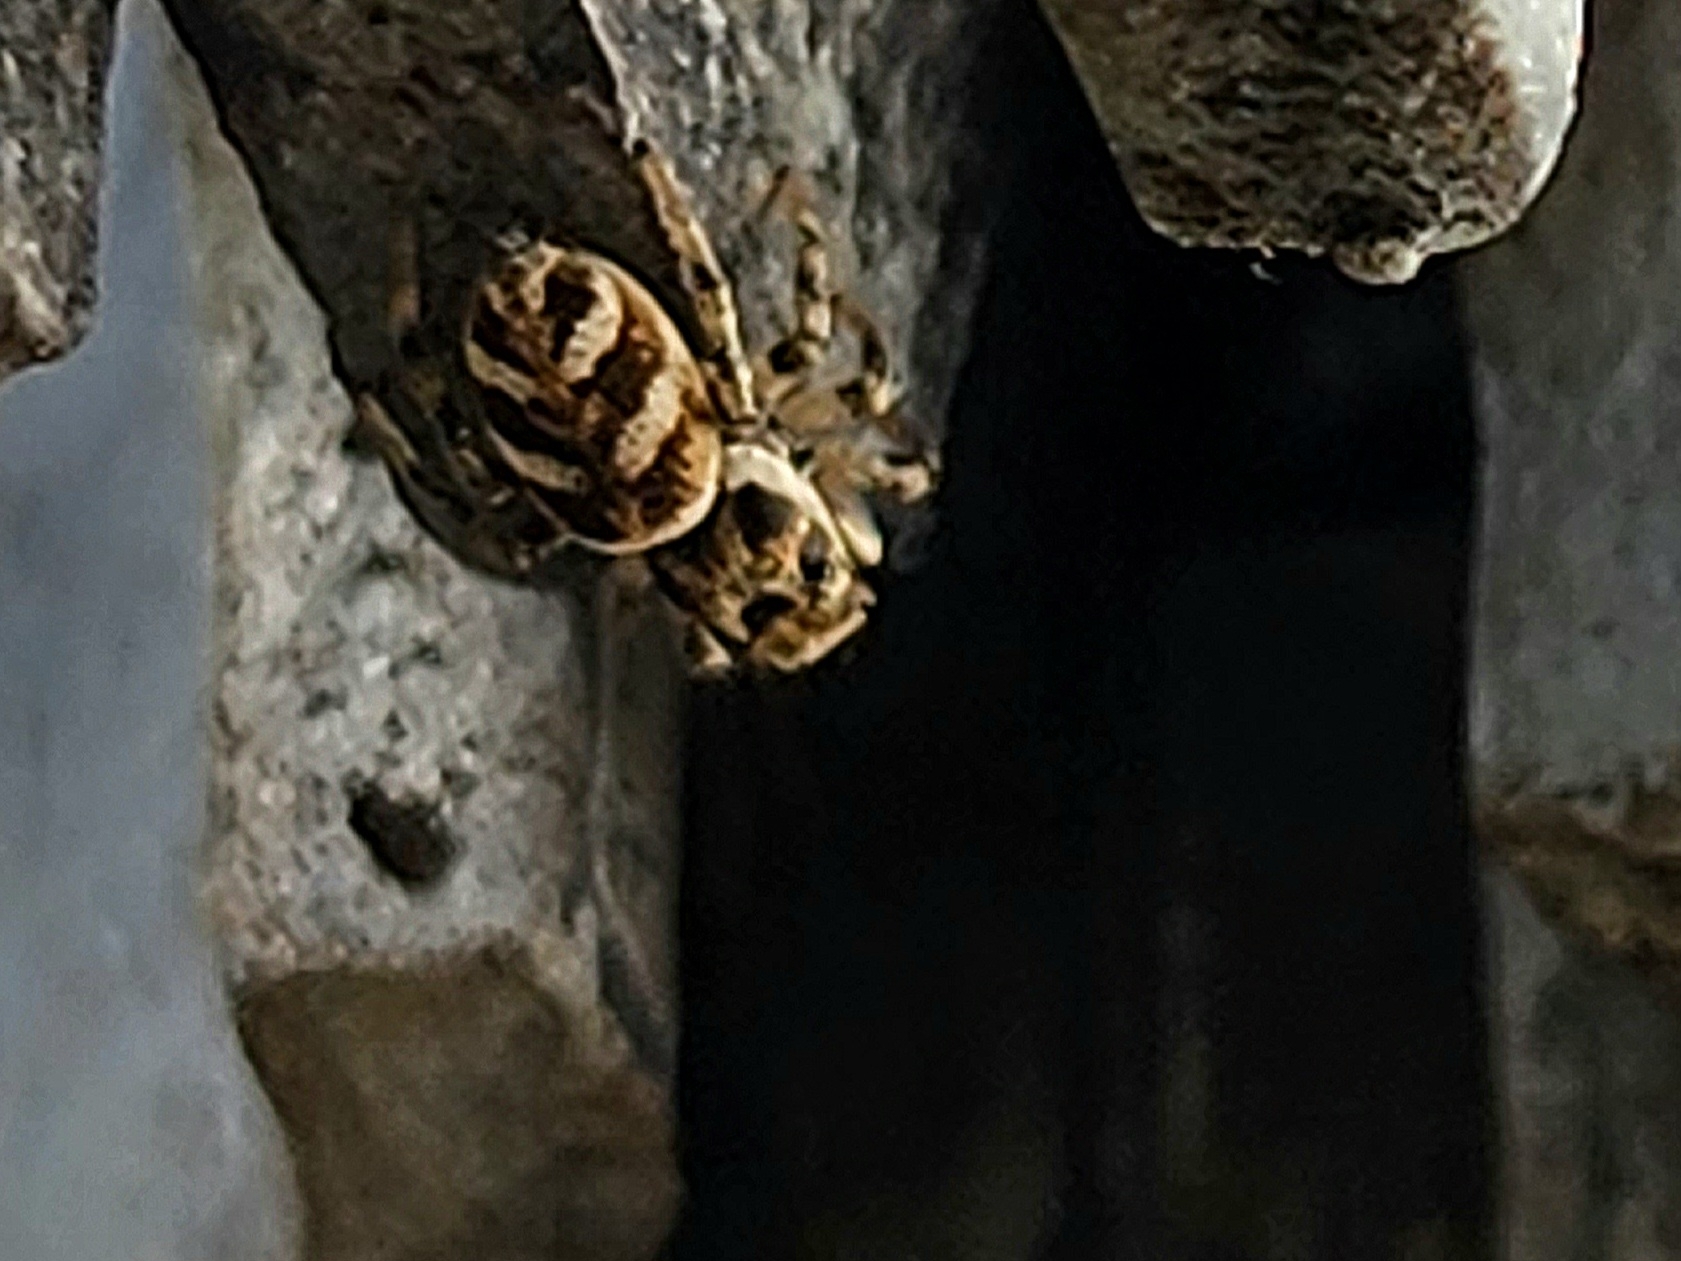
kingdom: Animalia
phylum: Arthropoda
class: Arachnida
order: Araneae
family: Salticidae
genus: Salticus
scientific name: Salticus scenicus
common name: Zebra jumper
